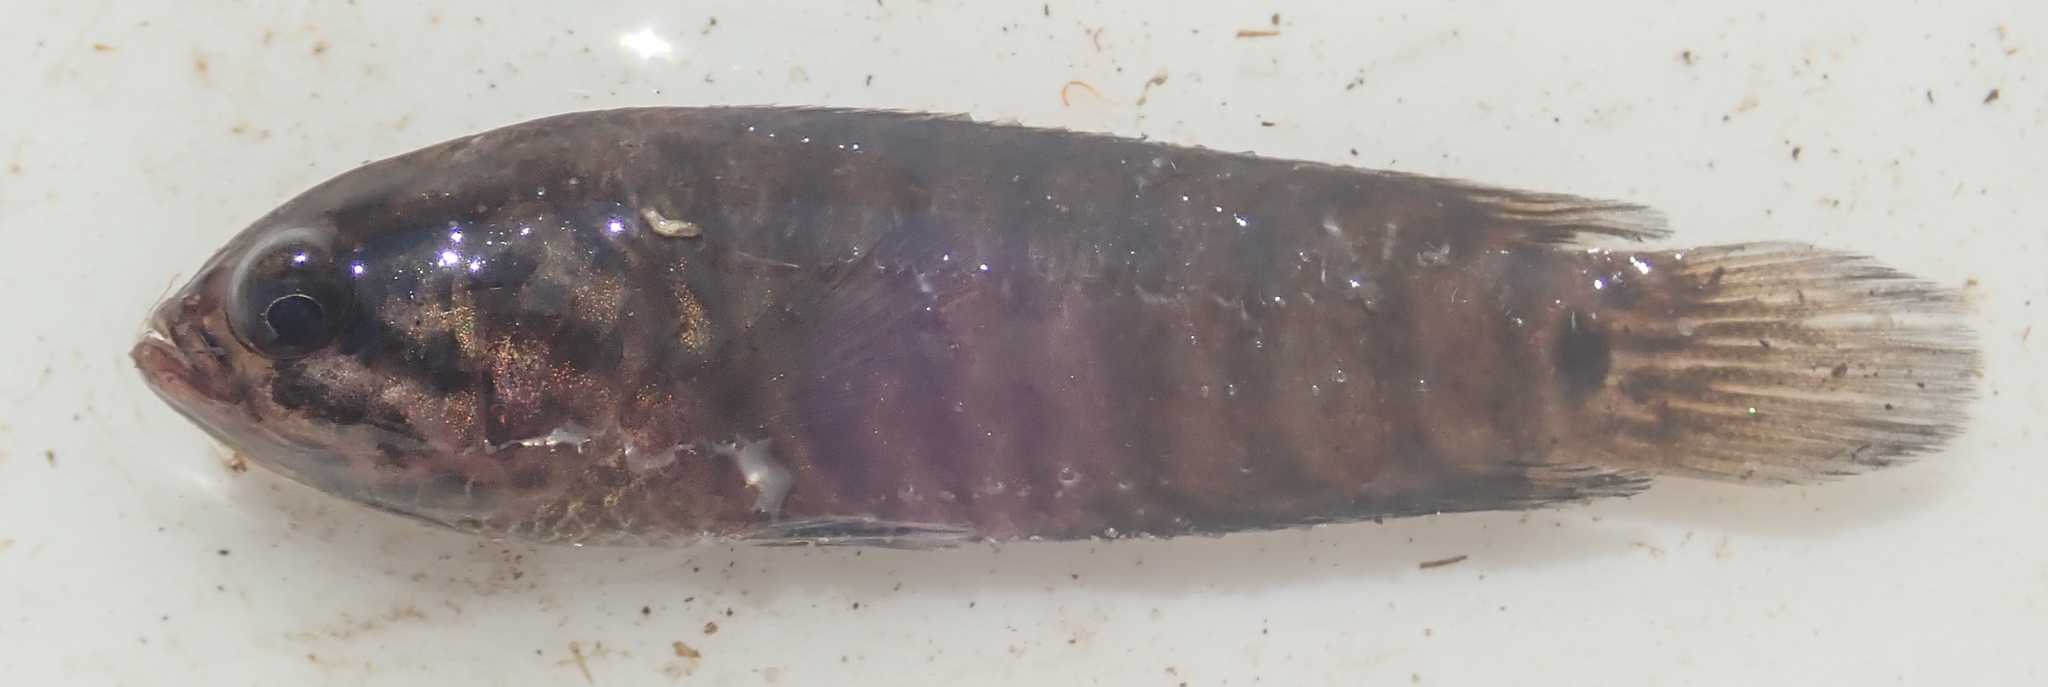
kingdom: Animalia
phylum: Chordata
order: Perciformes
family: Anabantidae
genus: Microctenopoma
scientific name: Microctenopoma intermedium
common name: Blackspot climbing perch
